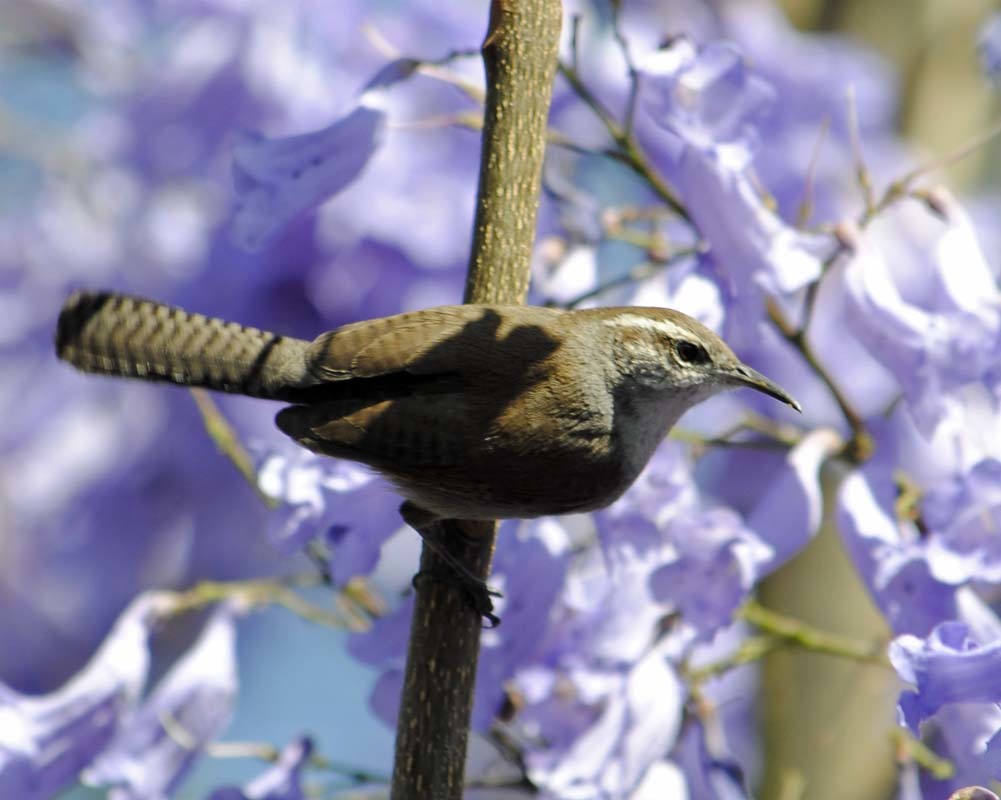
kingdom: Animalia
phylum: Chordata
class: Aves
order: Passeriformes
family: Troglodytidae
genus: Thryomanes
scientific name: Thryomanes bewickii
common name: Bewick's wren
